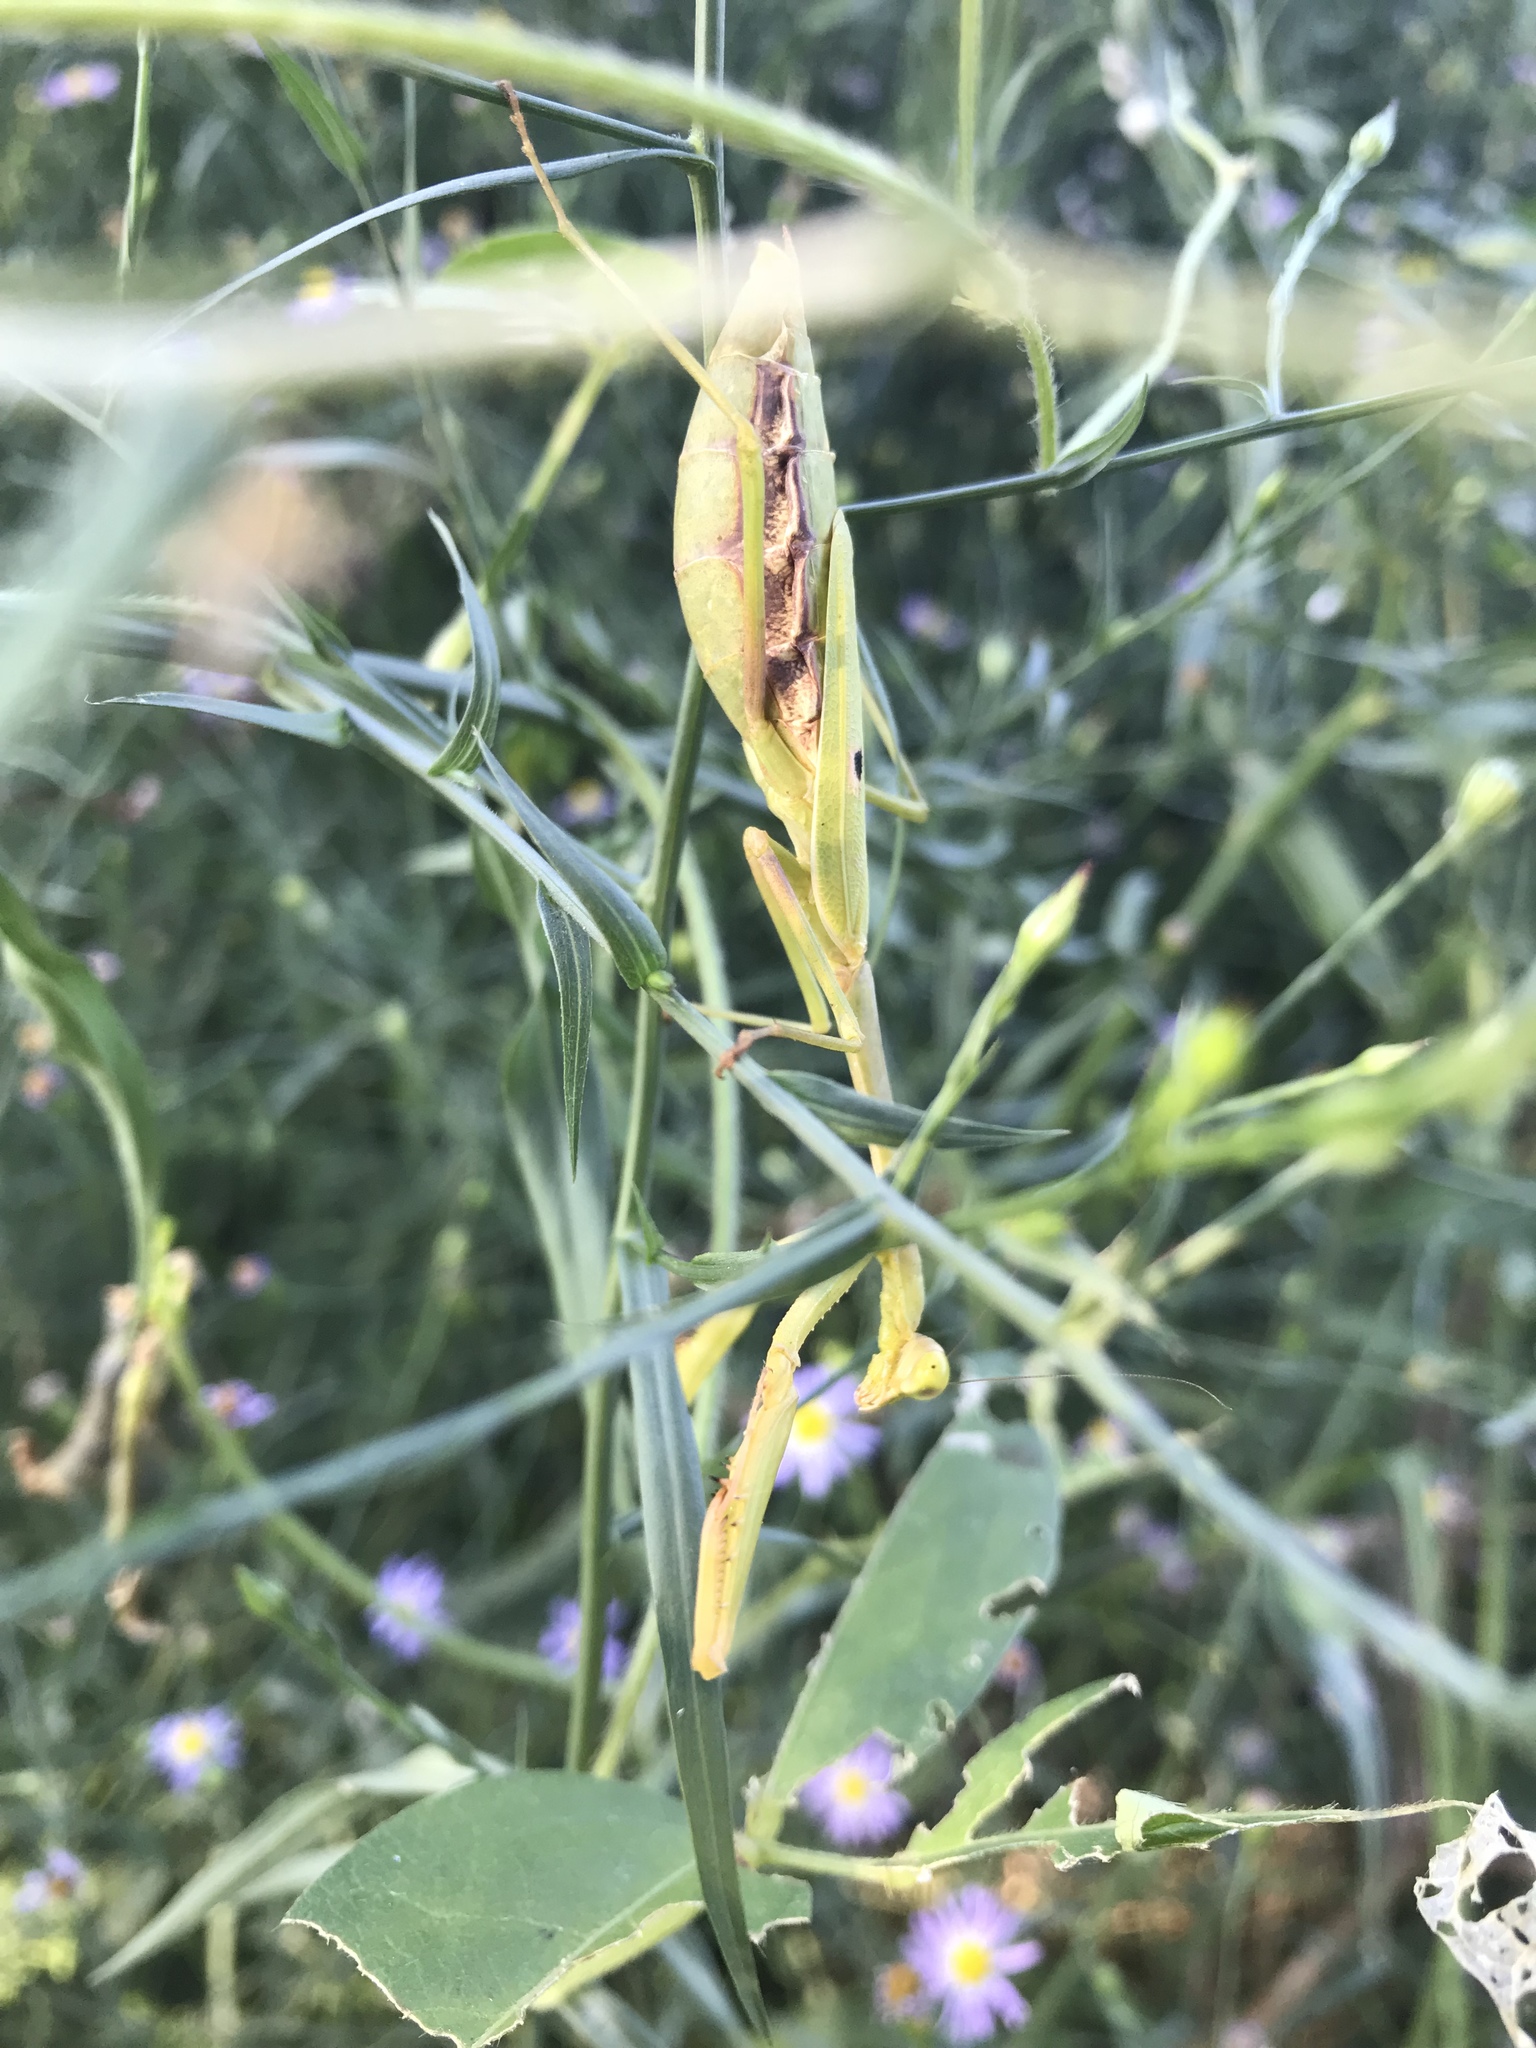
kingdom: Animalia
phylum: Arthropoda
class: Insecta
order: Mantodea
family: Mantidae
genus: Stagmomantis
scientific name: Stagmomantis carolina
